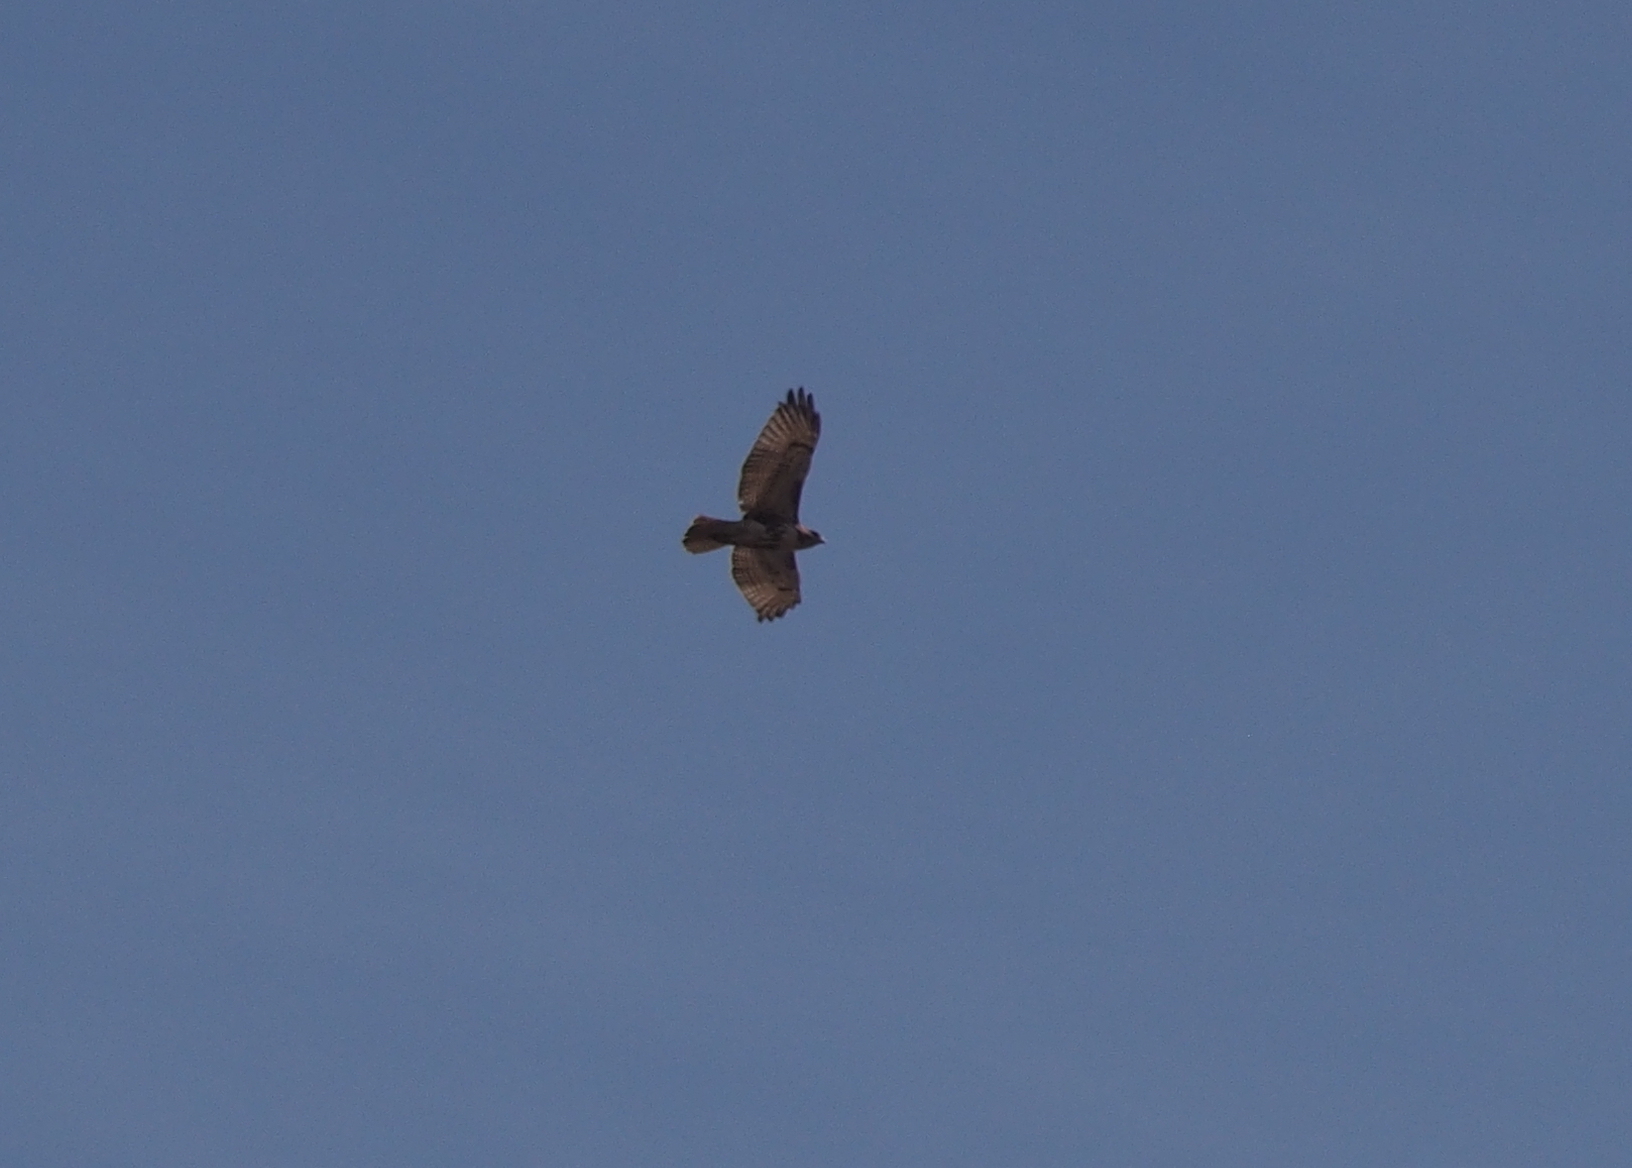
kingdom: Animalia
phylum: Chordata
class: Aves
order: Accipitriformes
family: Accipitridae
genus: Buteo
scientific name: Buteo jamaicensis
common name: Red-tailed hawk
